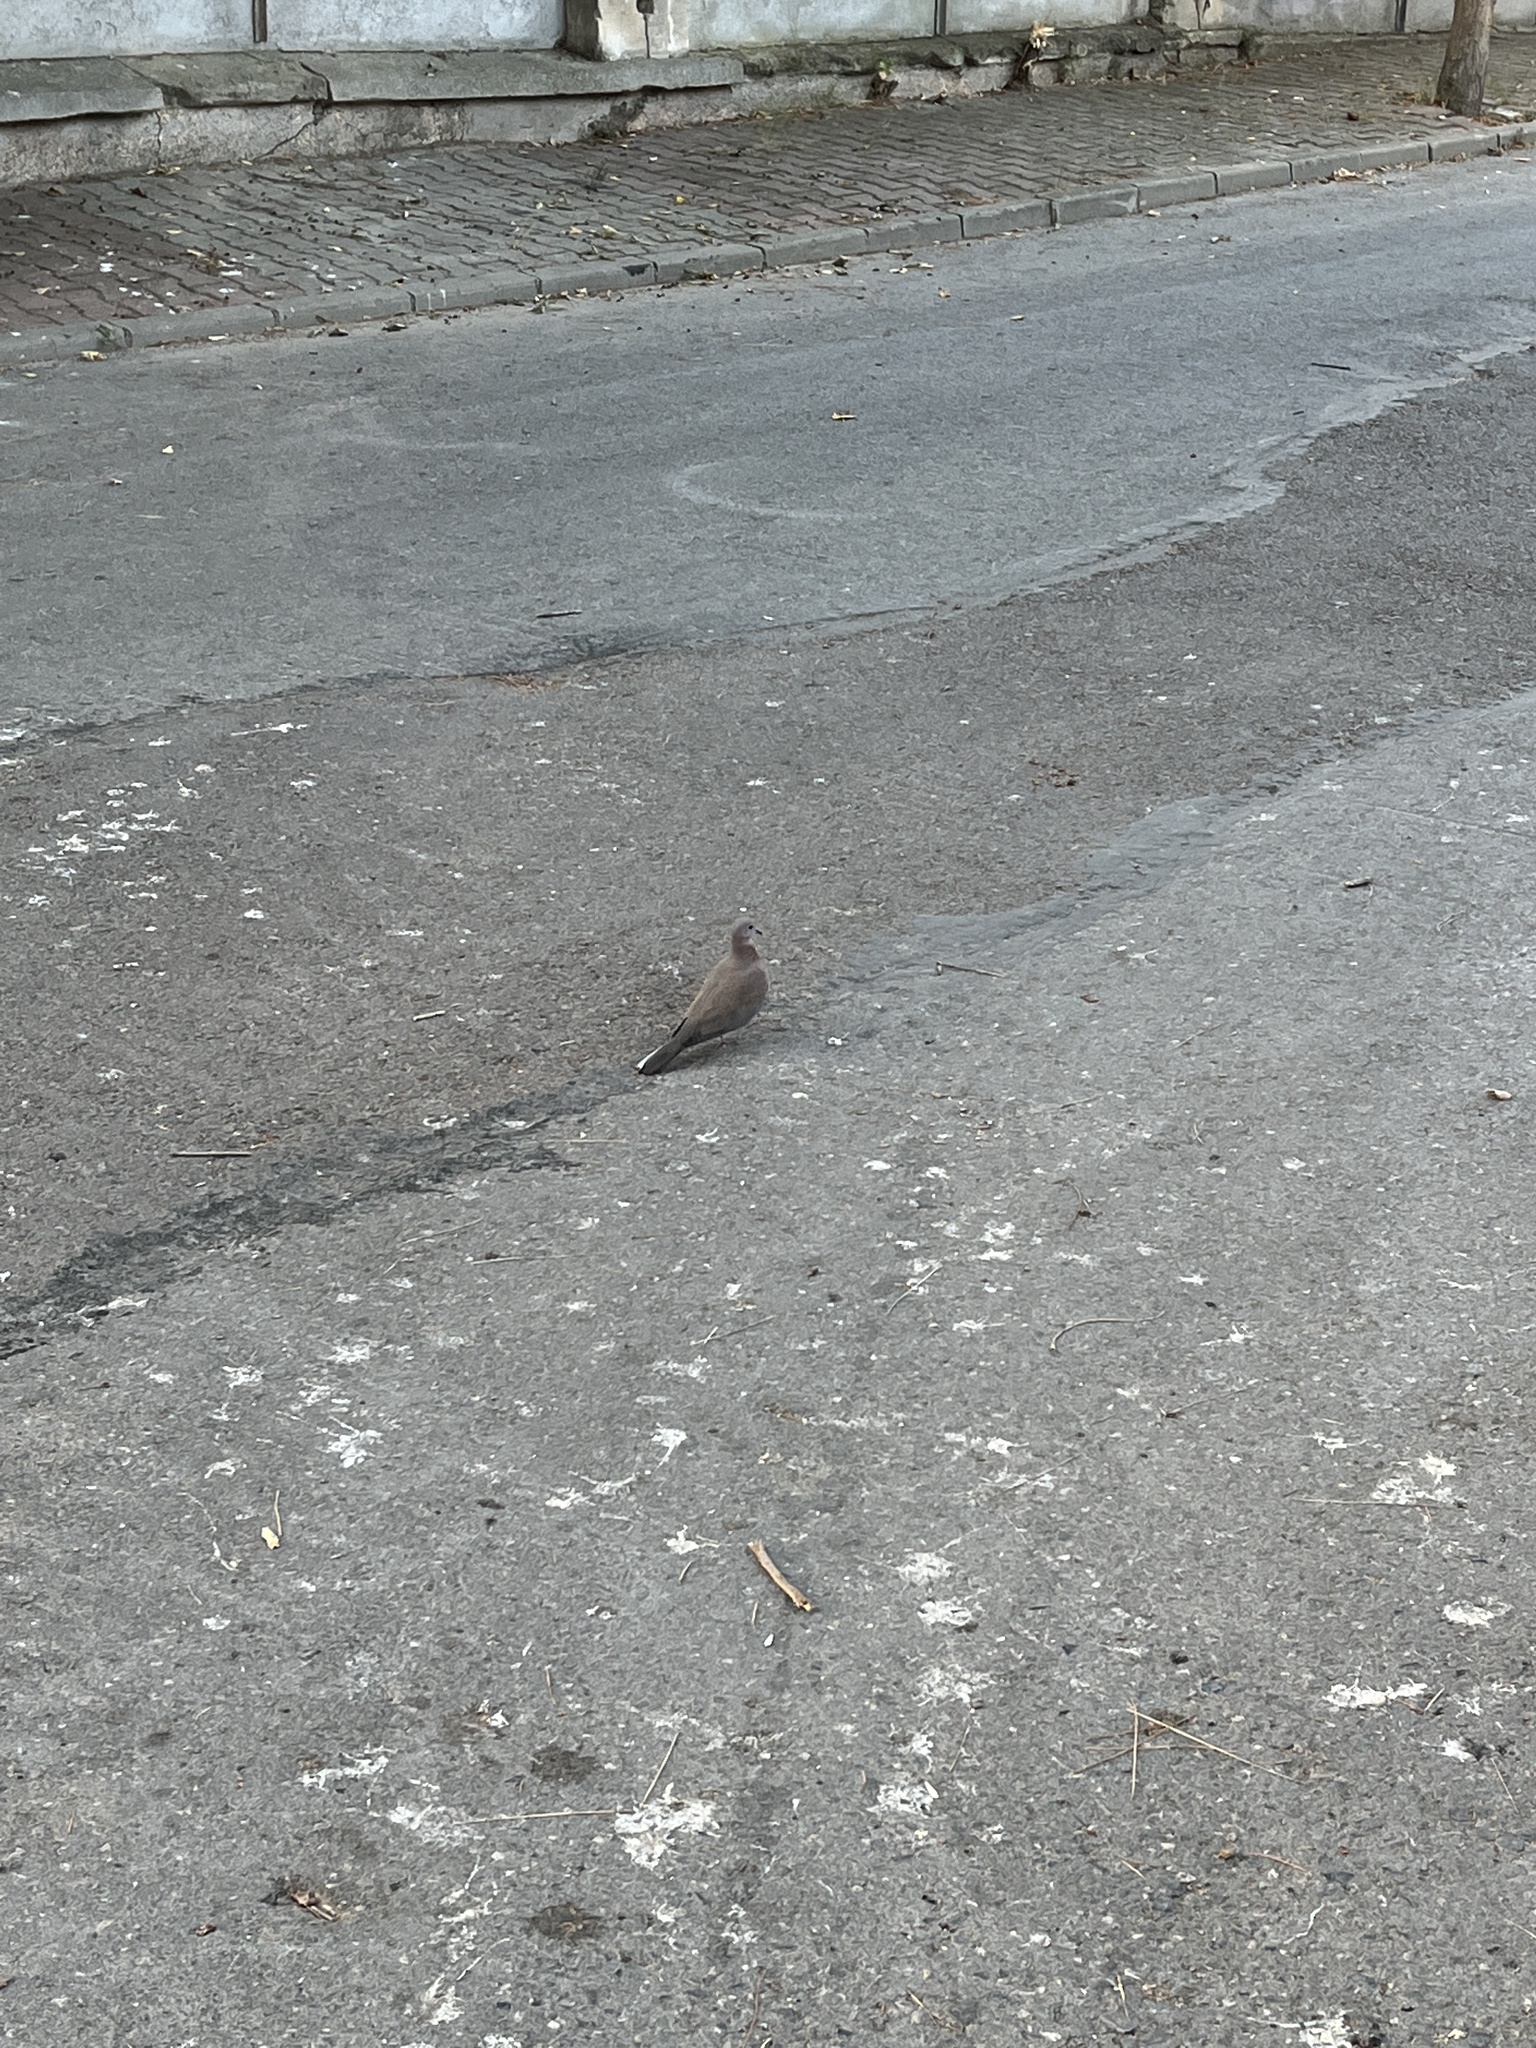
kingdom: Animalia
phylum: Chordata
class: Aves
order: Columbiformes
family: Columbidae
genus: Spilopelia
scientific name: Spilopelia senegalensis
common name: Laughing dove
